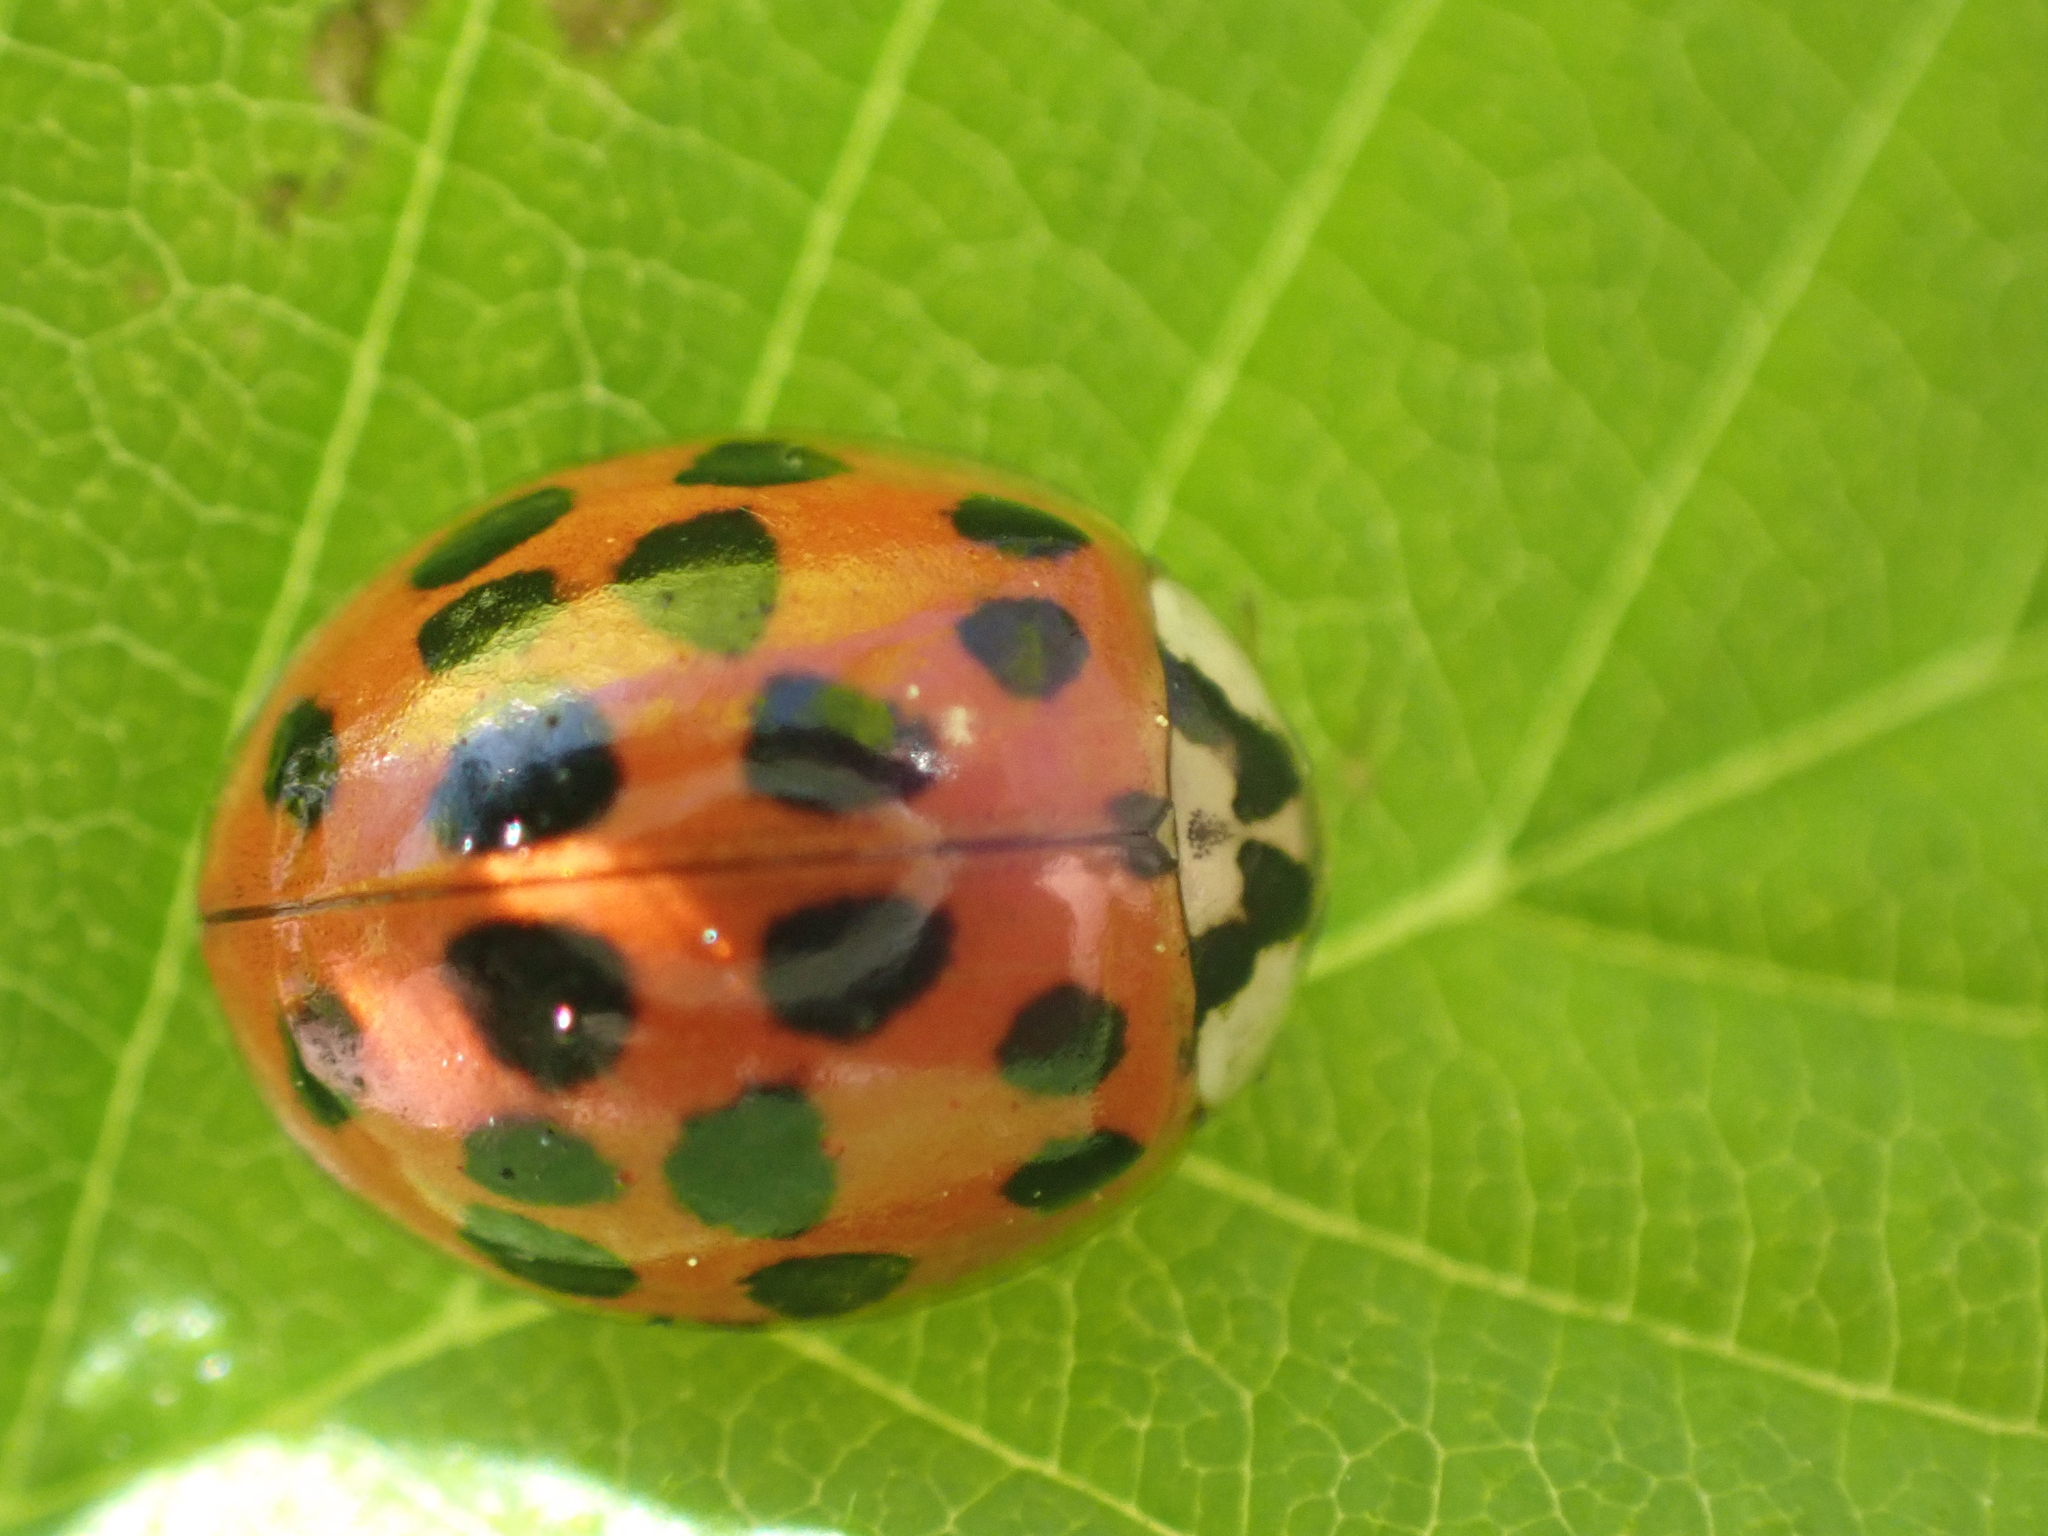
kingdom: Animalia
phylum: Arthropoda
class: Insecta
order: Coleoptera
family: Coccinellidae
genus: Harmonia
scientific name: Harmonia axyridis
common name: Harlequin ladybird
